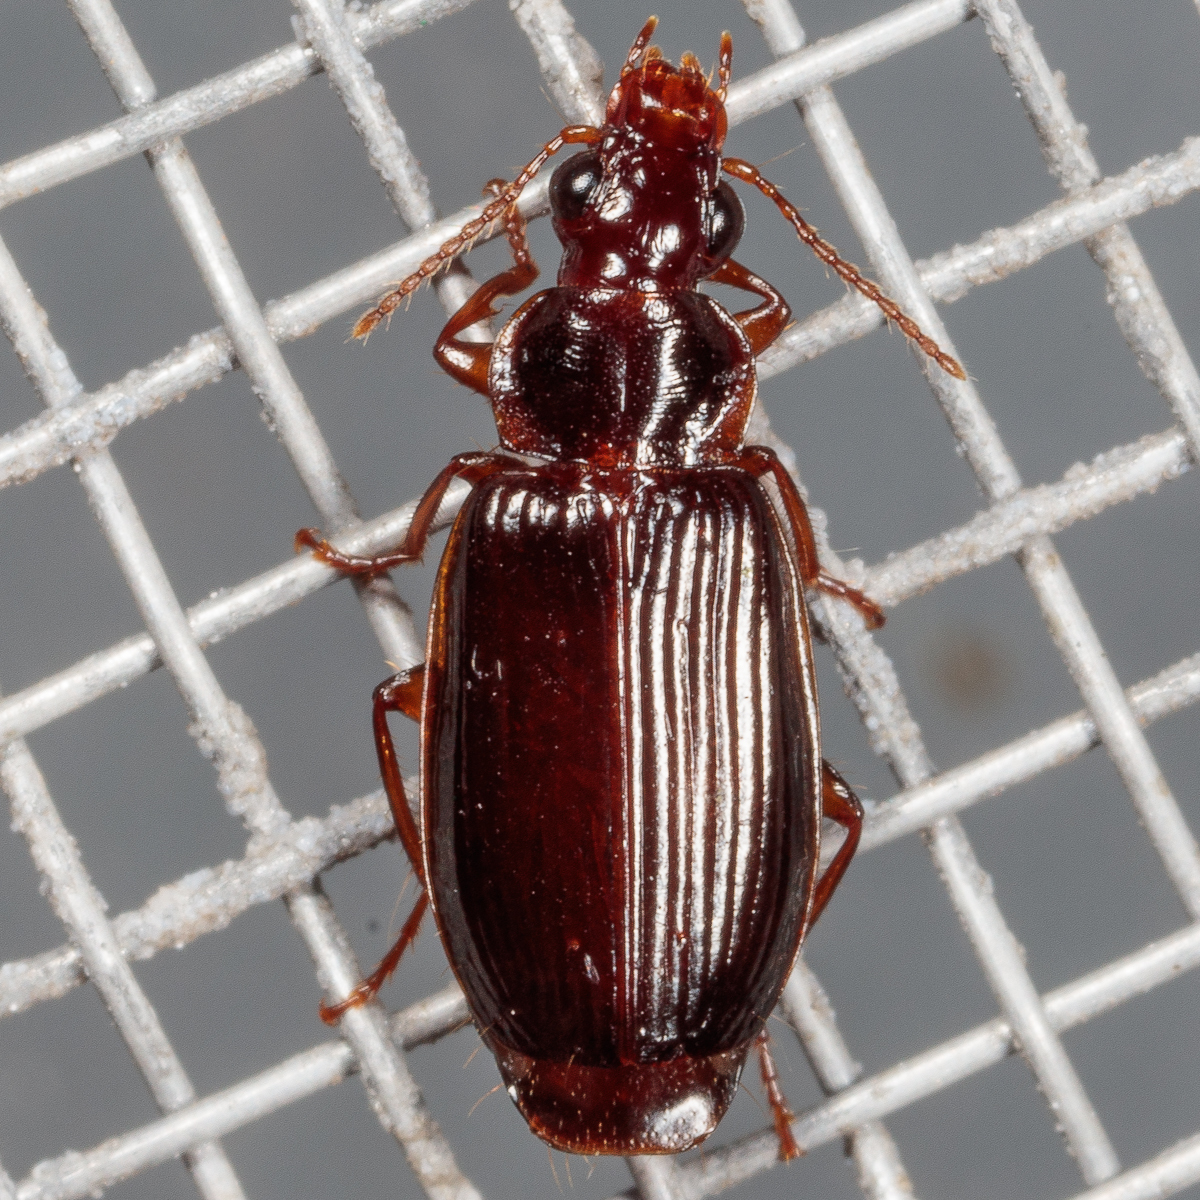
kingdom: Animalia
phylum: Arthropoda
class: Insecta
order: Coleoptera
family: Carabidae
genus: Plochionus
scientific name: Plochionus timidus
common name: Timid harp ground beetle
